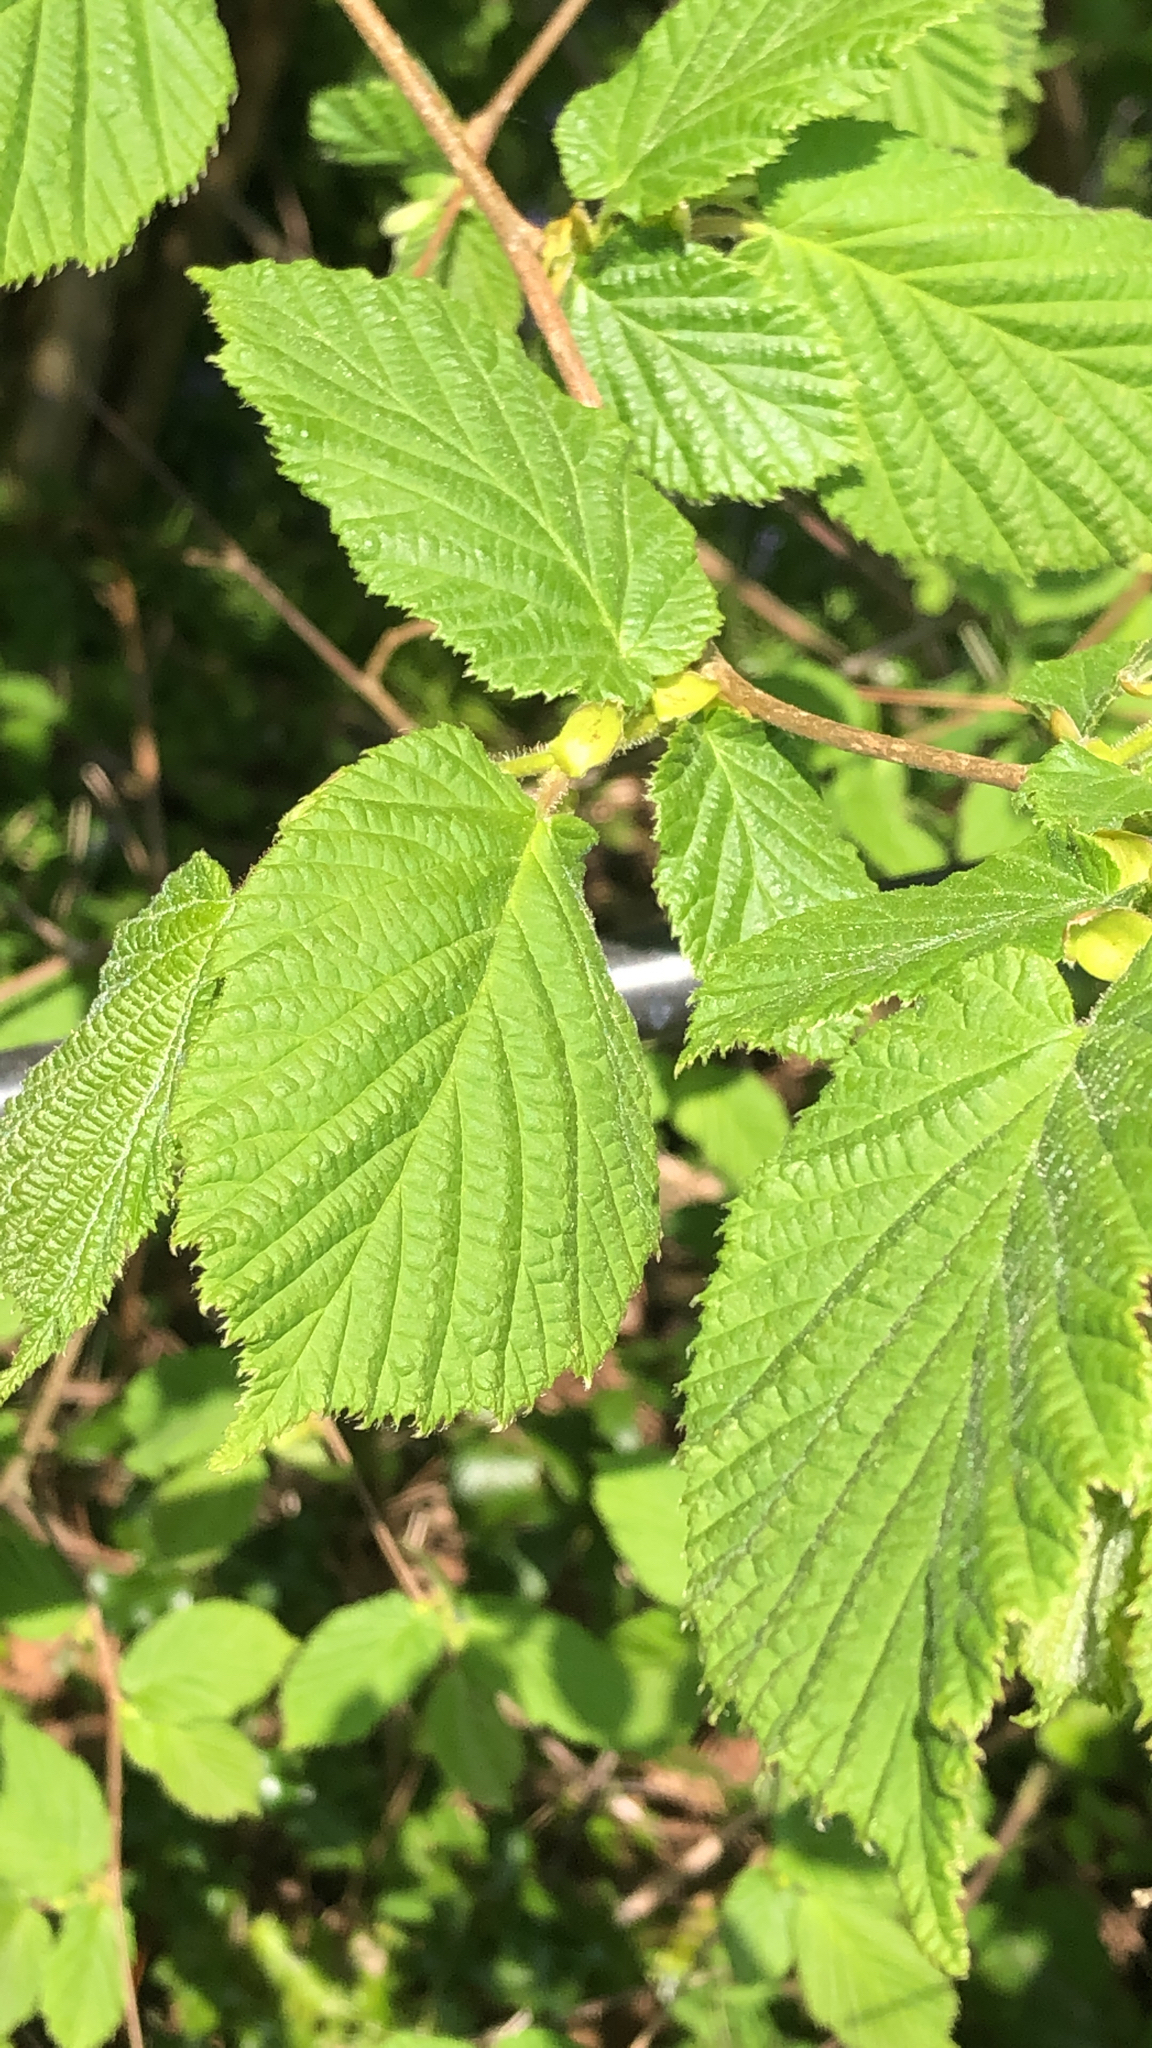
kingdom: Plantae
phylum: Tracheophyta
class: Magnoliopsida
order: Fagales
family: Betulaceae
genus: Corylus
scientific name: Corylus avellana
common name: European hazel
